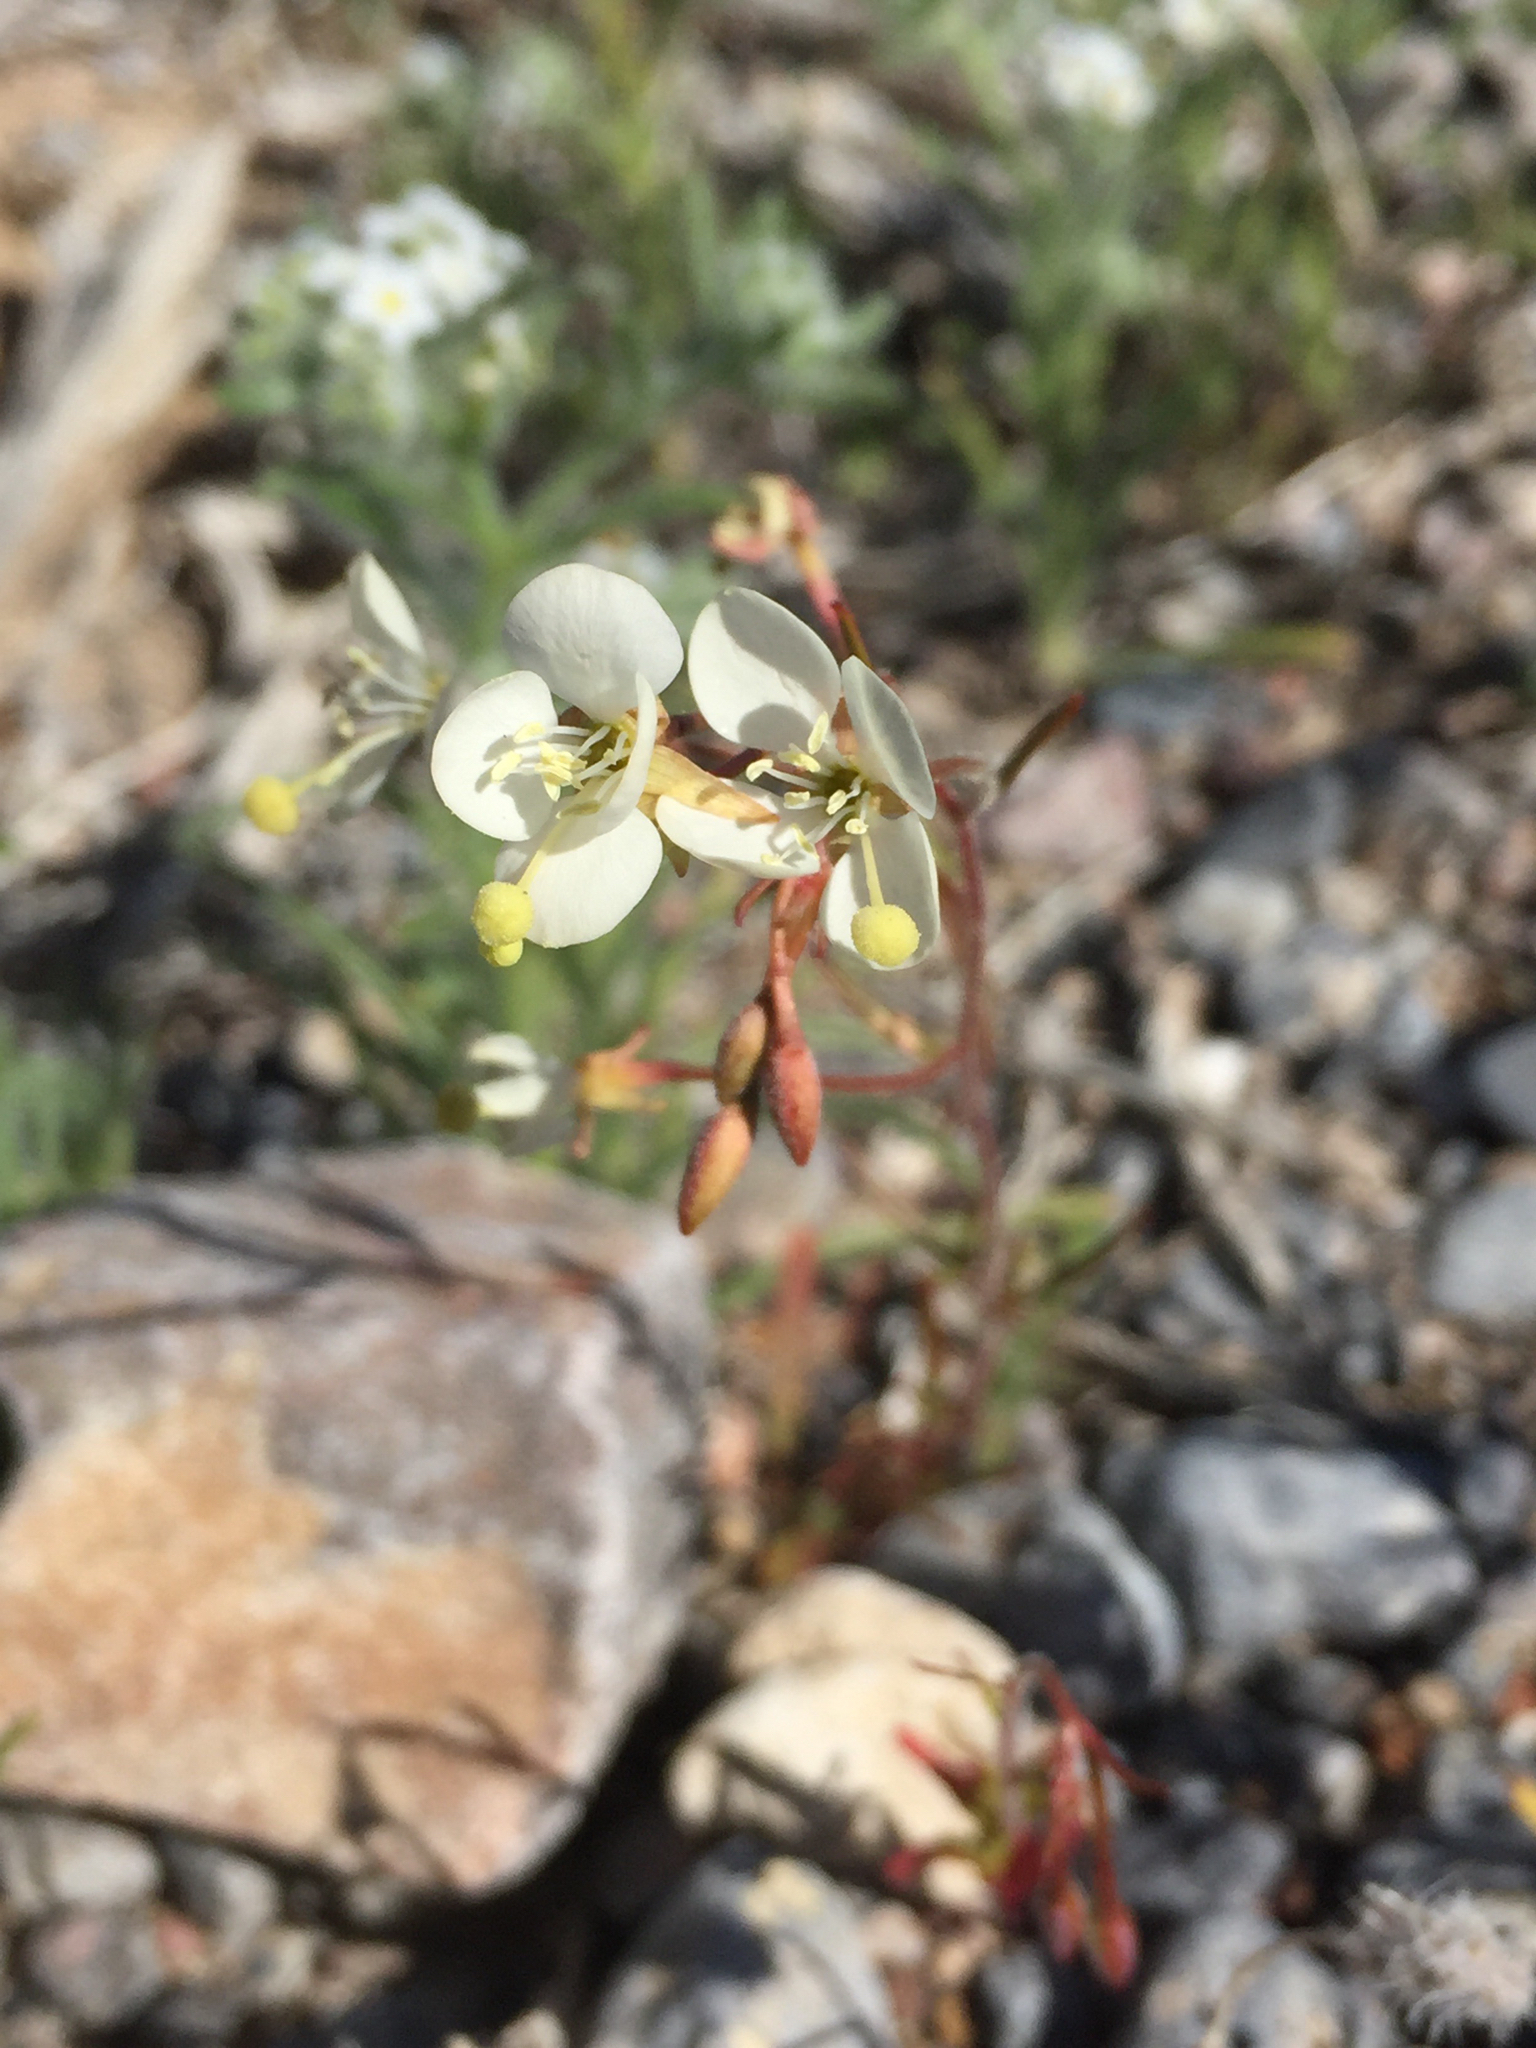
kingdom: Plantae
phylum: Tracheophyta
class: Magnoliopsida
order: Myrtales
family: Onagraceae
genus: Eremothera
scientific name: Eremothera refracta
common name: Narrowleaf suncup
